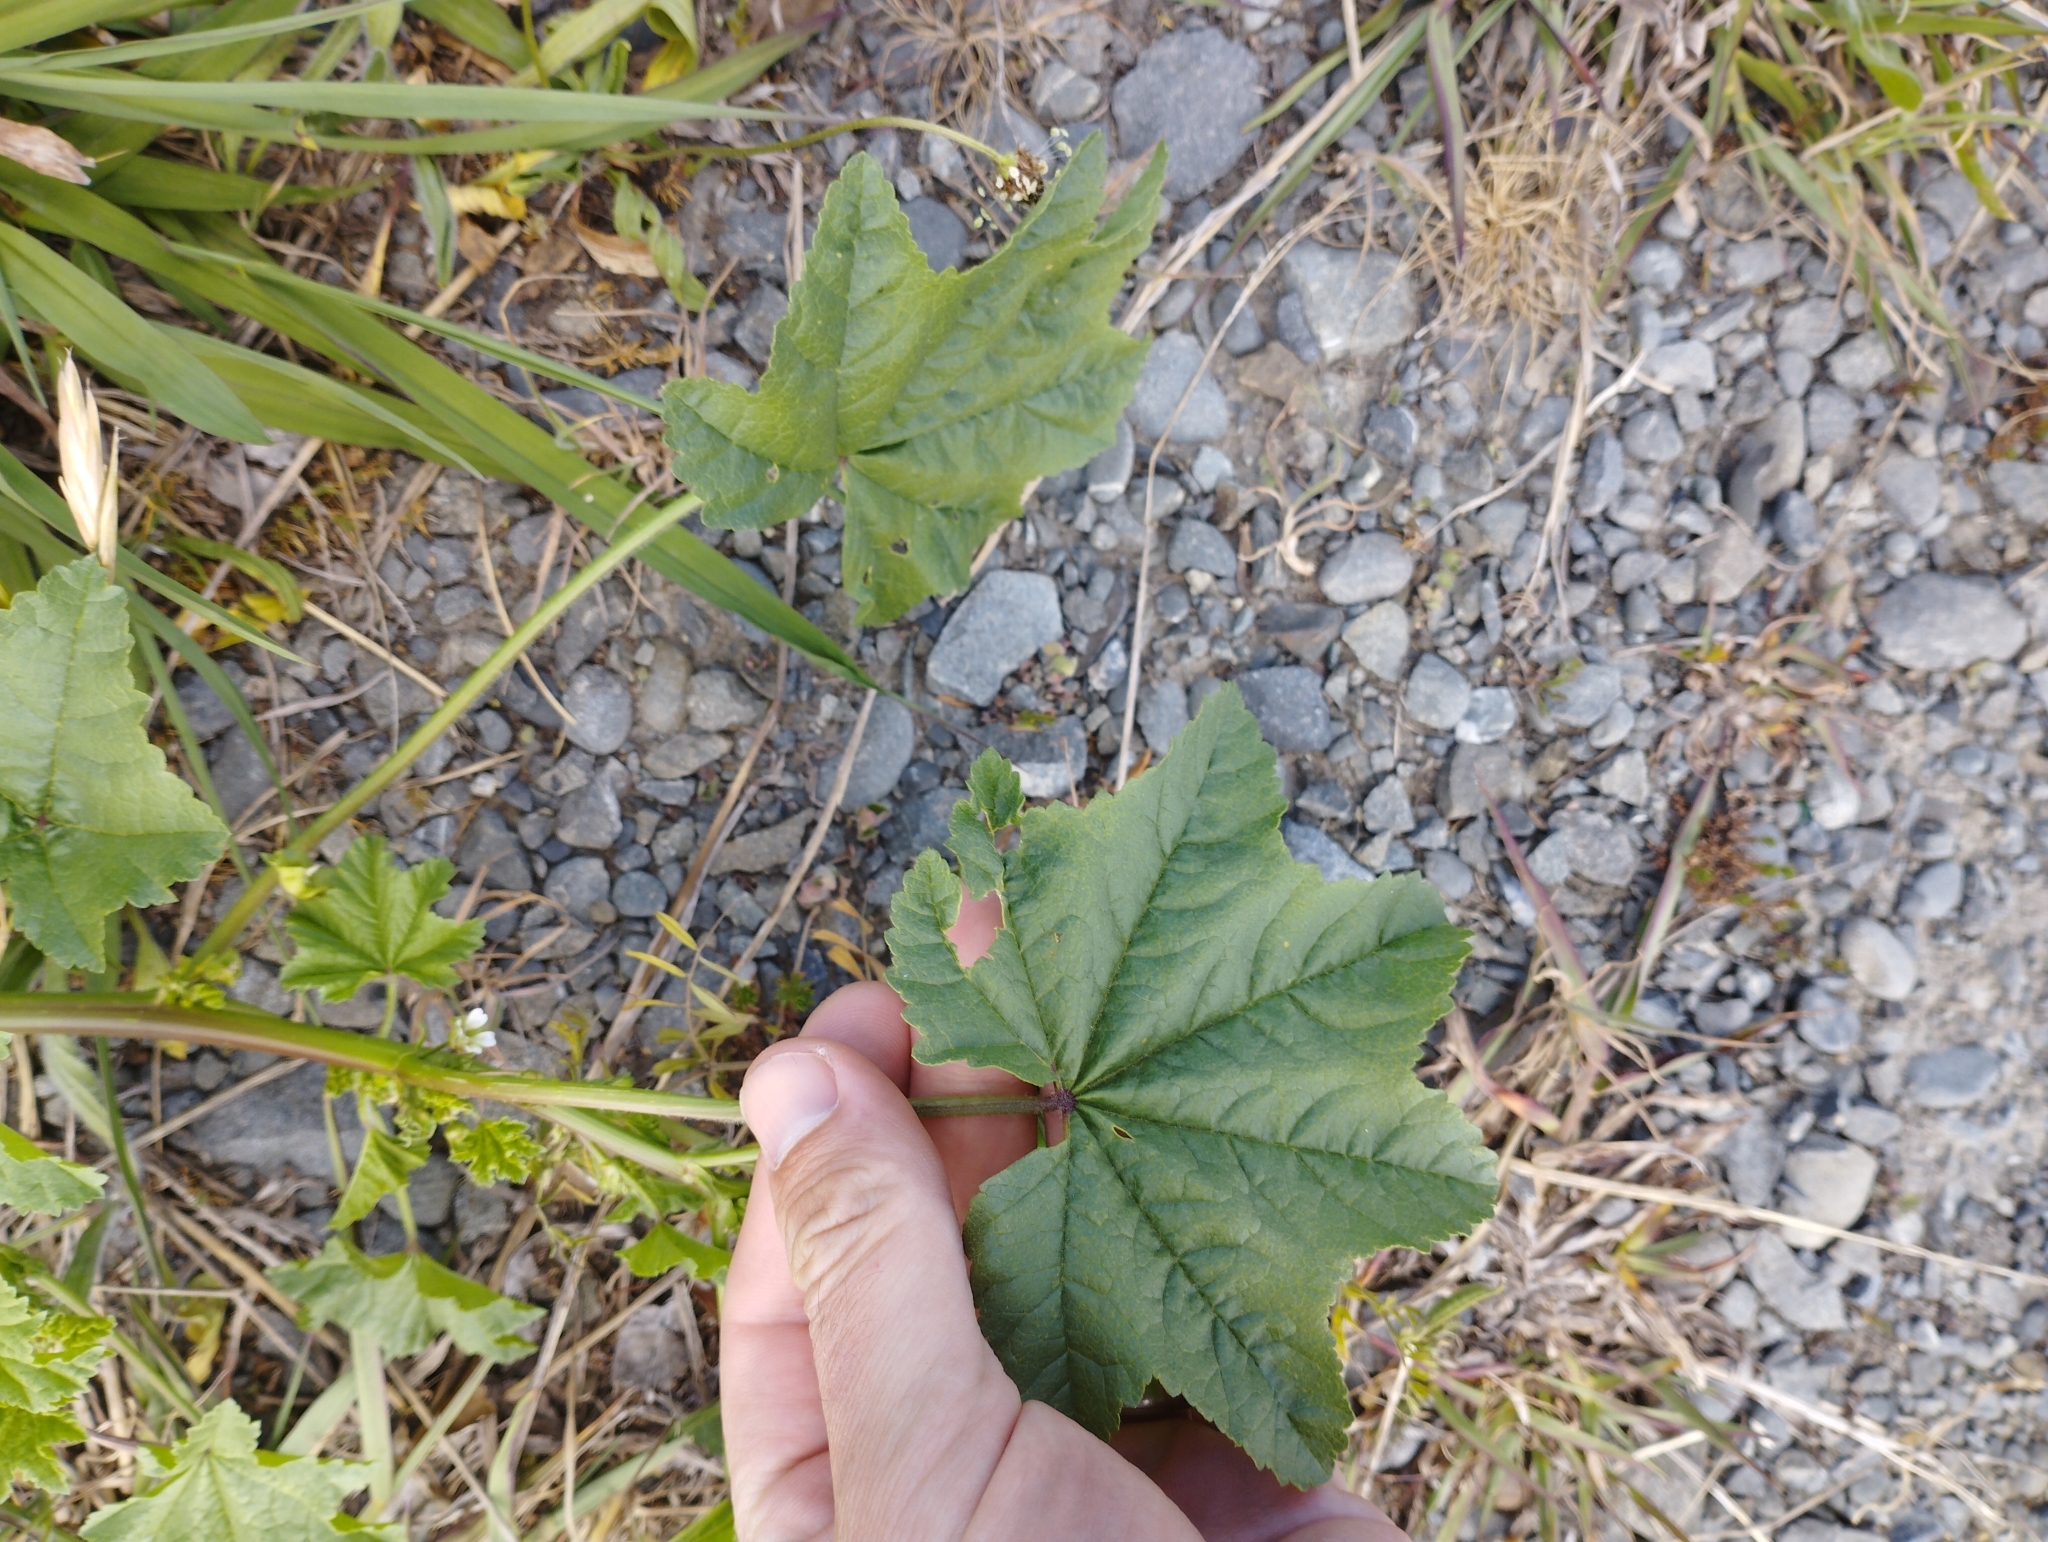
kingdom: Plantae
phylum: Tracheophyta
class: Magnoliopsida
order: Malvales
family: Malvaceae
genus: Malva
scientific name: Malva parviflora
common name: Least mallow
